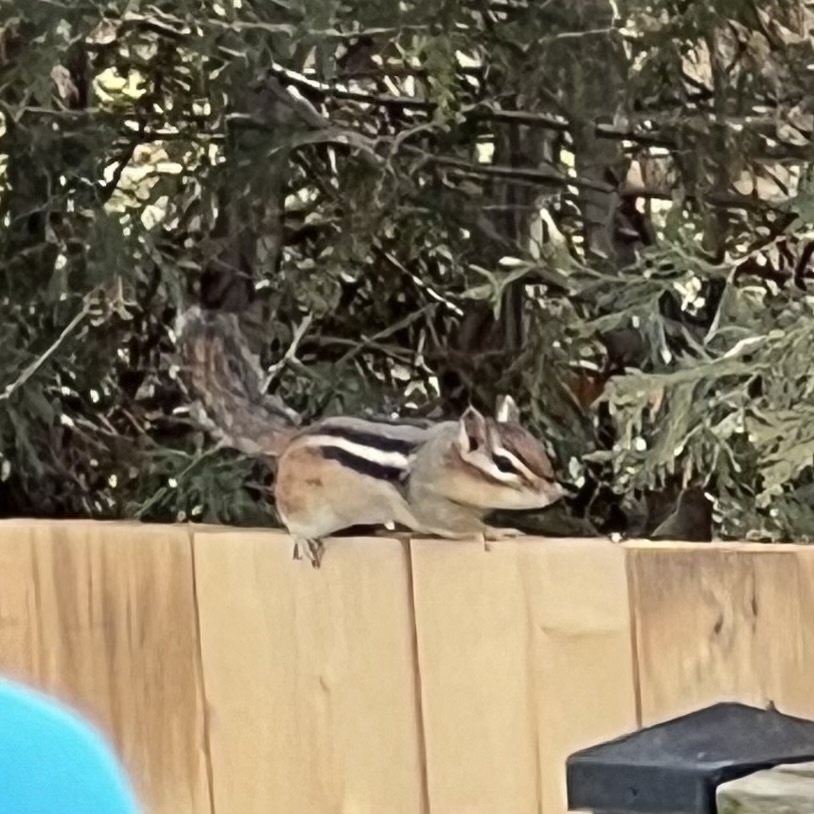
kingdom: Animalia
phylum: Chordata
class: Mammalia
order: Rodentia
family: Sciuridae
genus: Tamias
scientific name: Tamias striatus
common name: Eastern chipmunk
